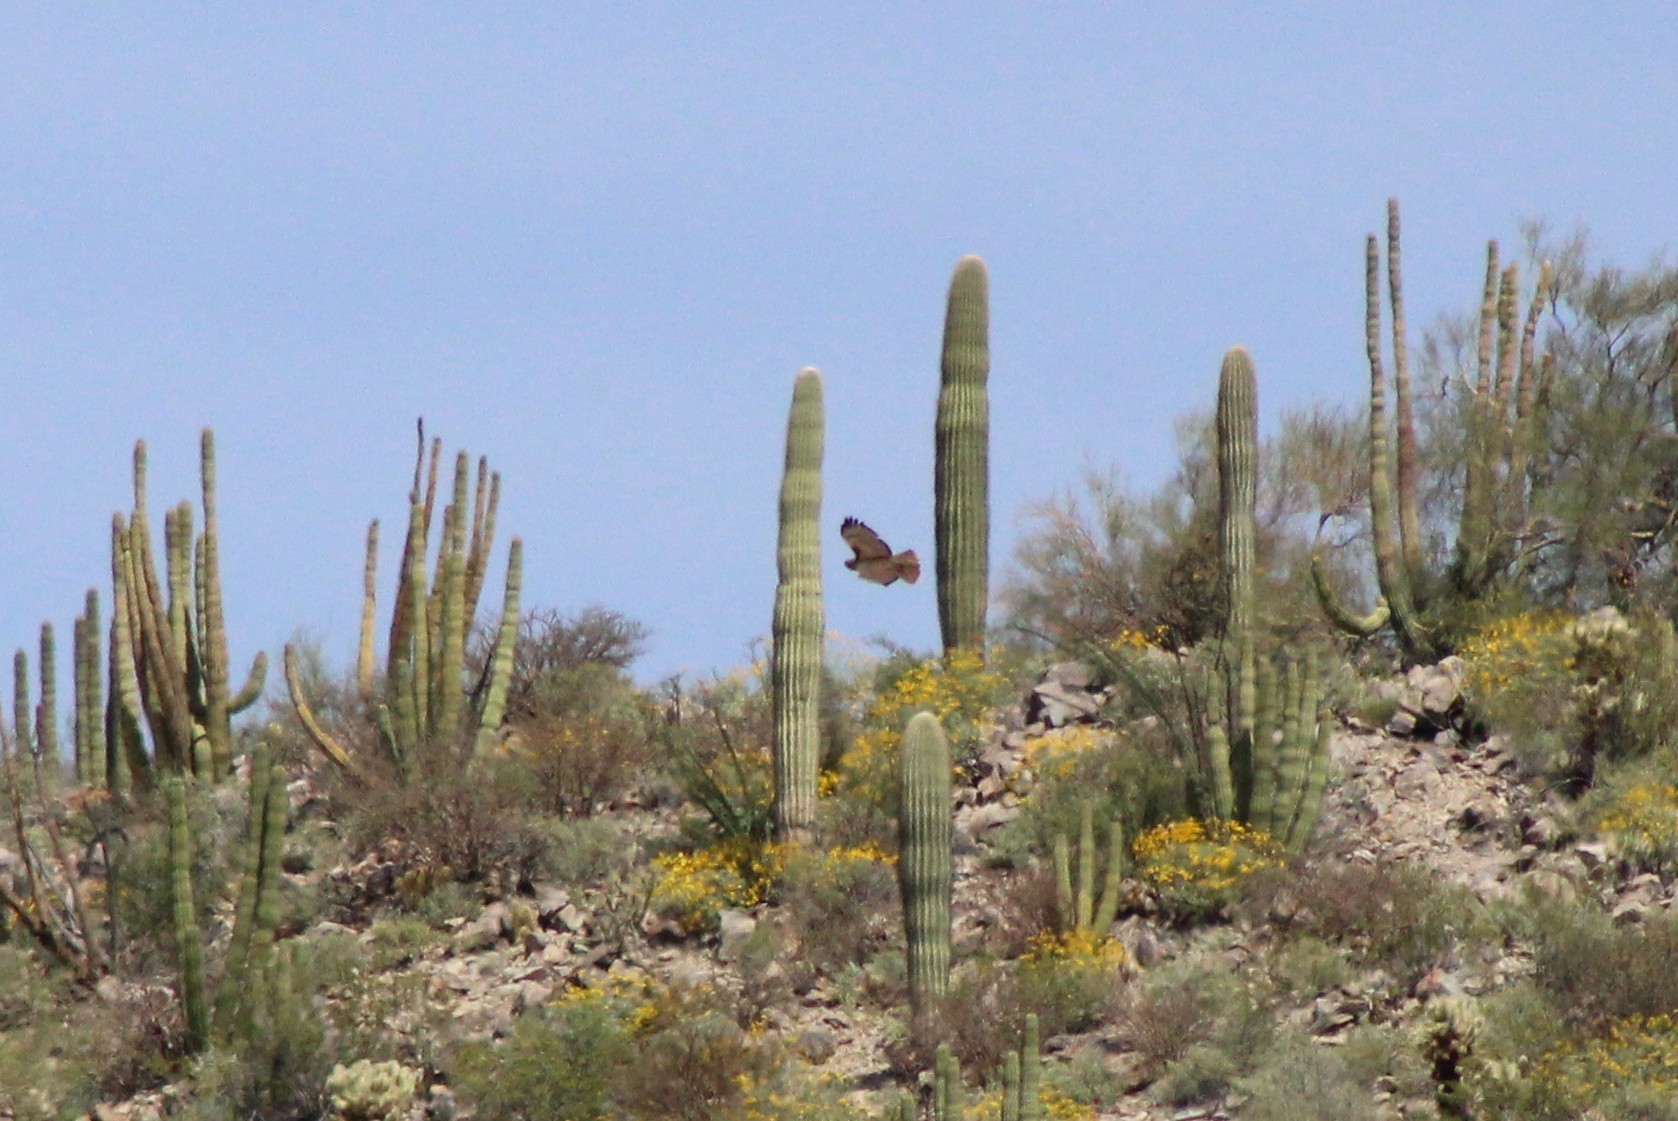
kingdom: Animalia
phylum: Chordata
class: Aves
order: Accipitriformes
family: Accipitridae
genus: Buteo
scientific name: Buteo jamaicensis
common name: Red-tailed hawk
